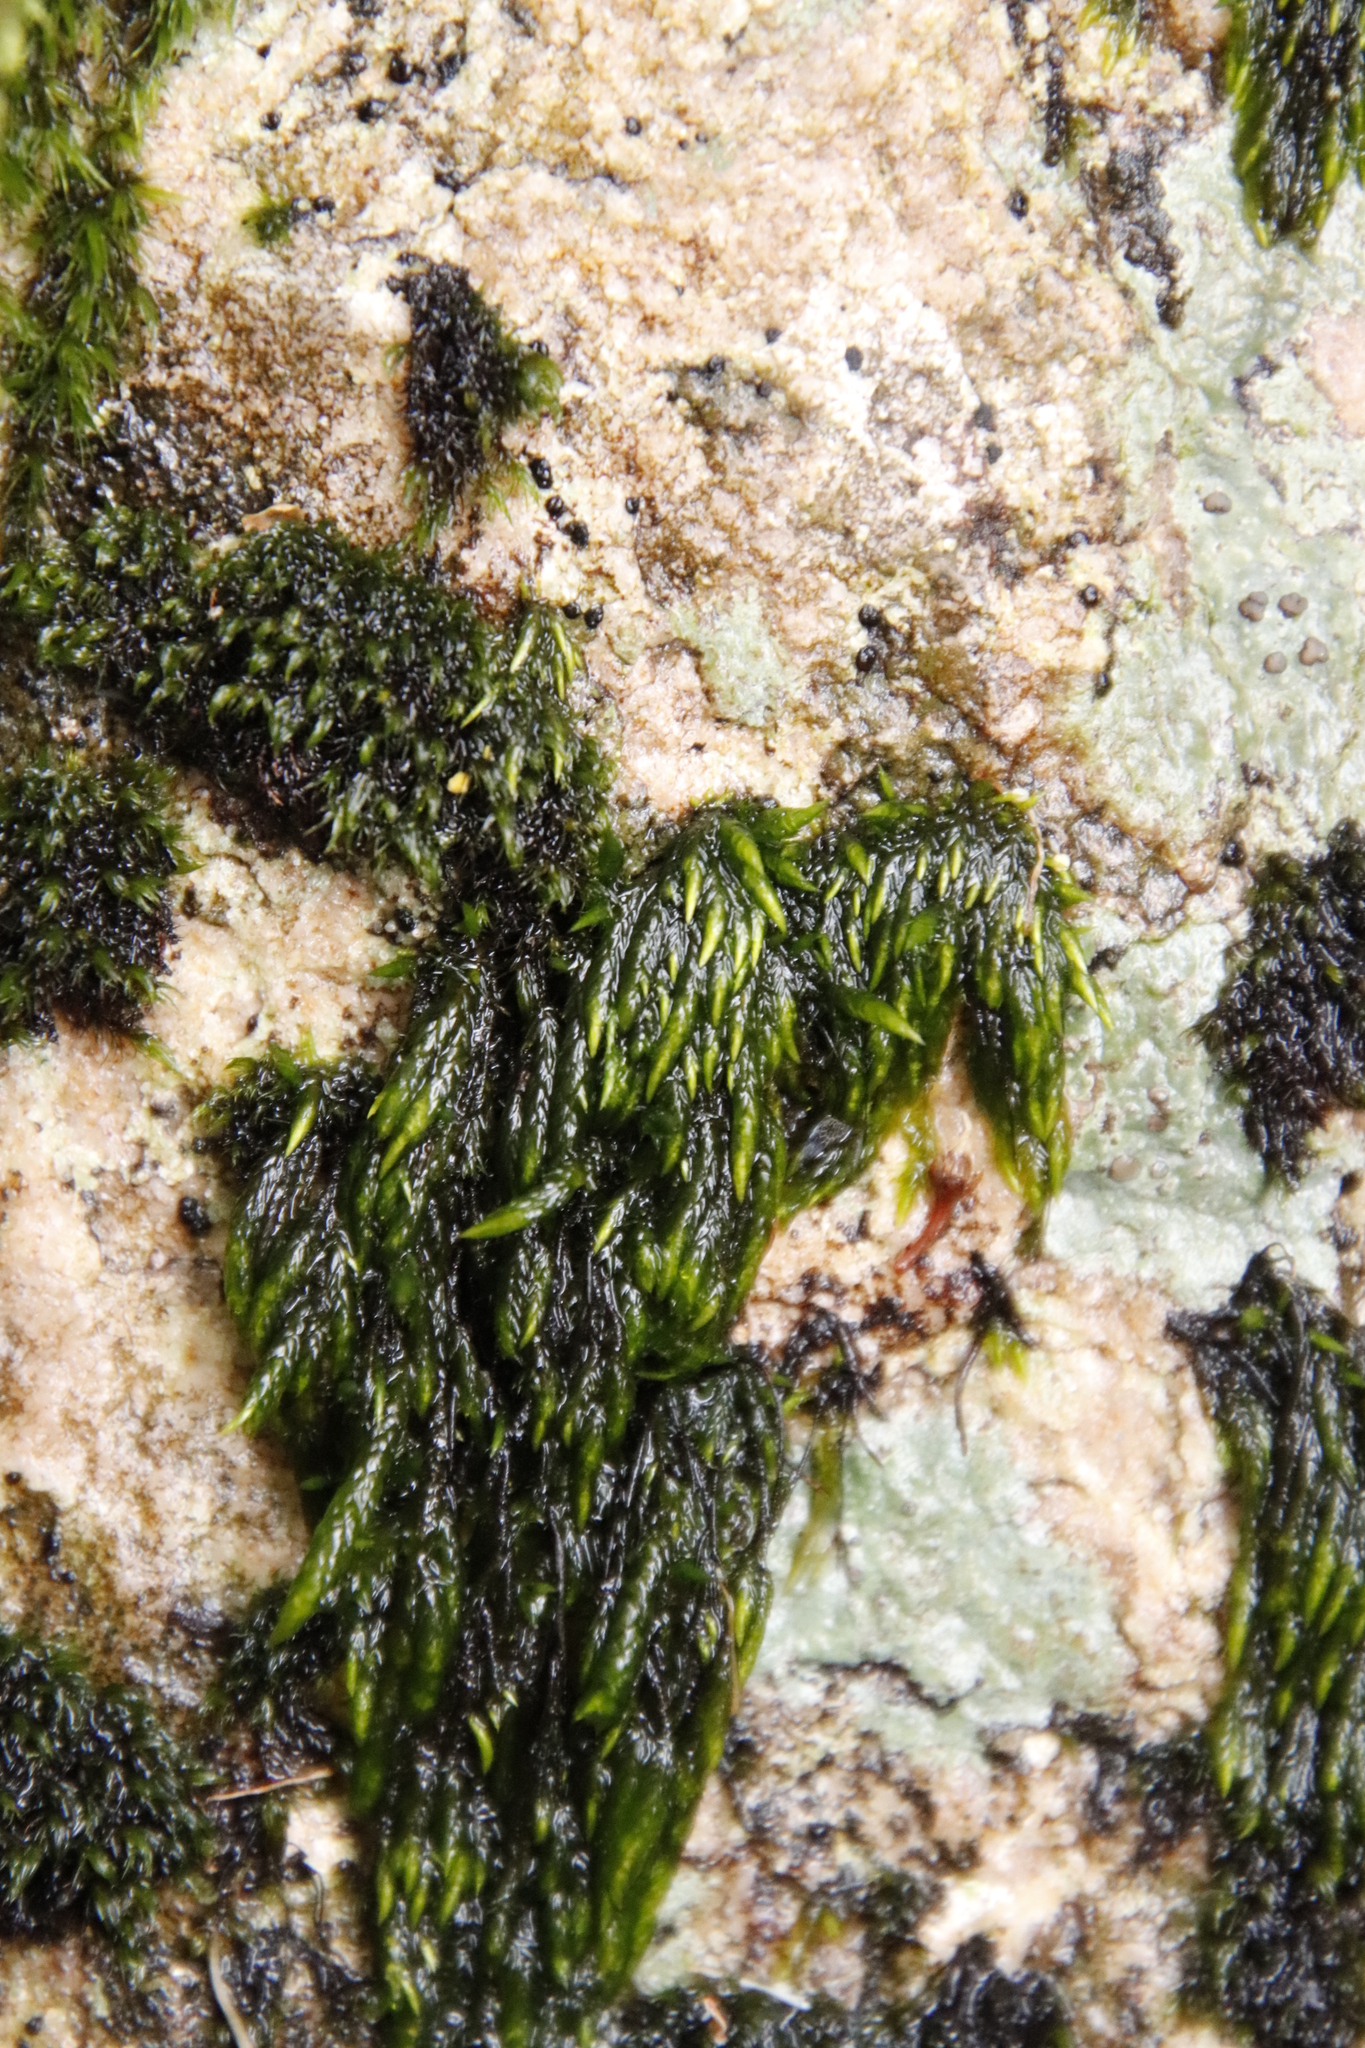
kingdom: Plantae
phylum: Bryophyta
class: Bryopsida
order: Dicranales
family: Dicranaceae
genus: Wardia
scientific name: Wardia hygrometrica
